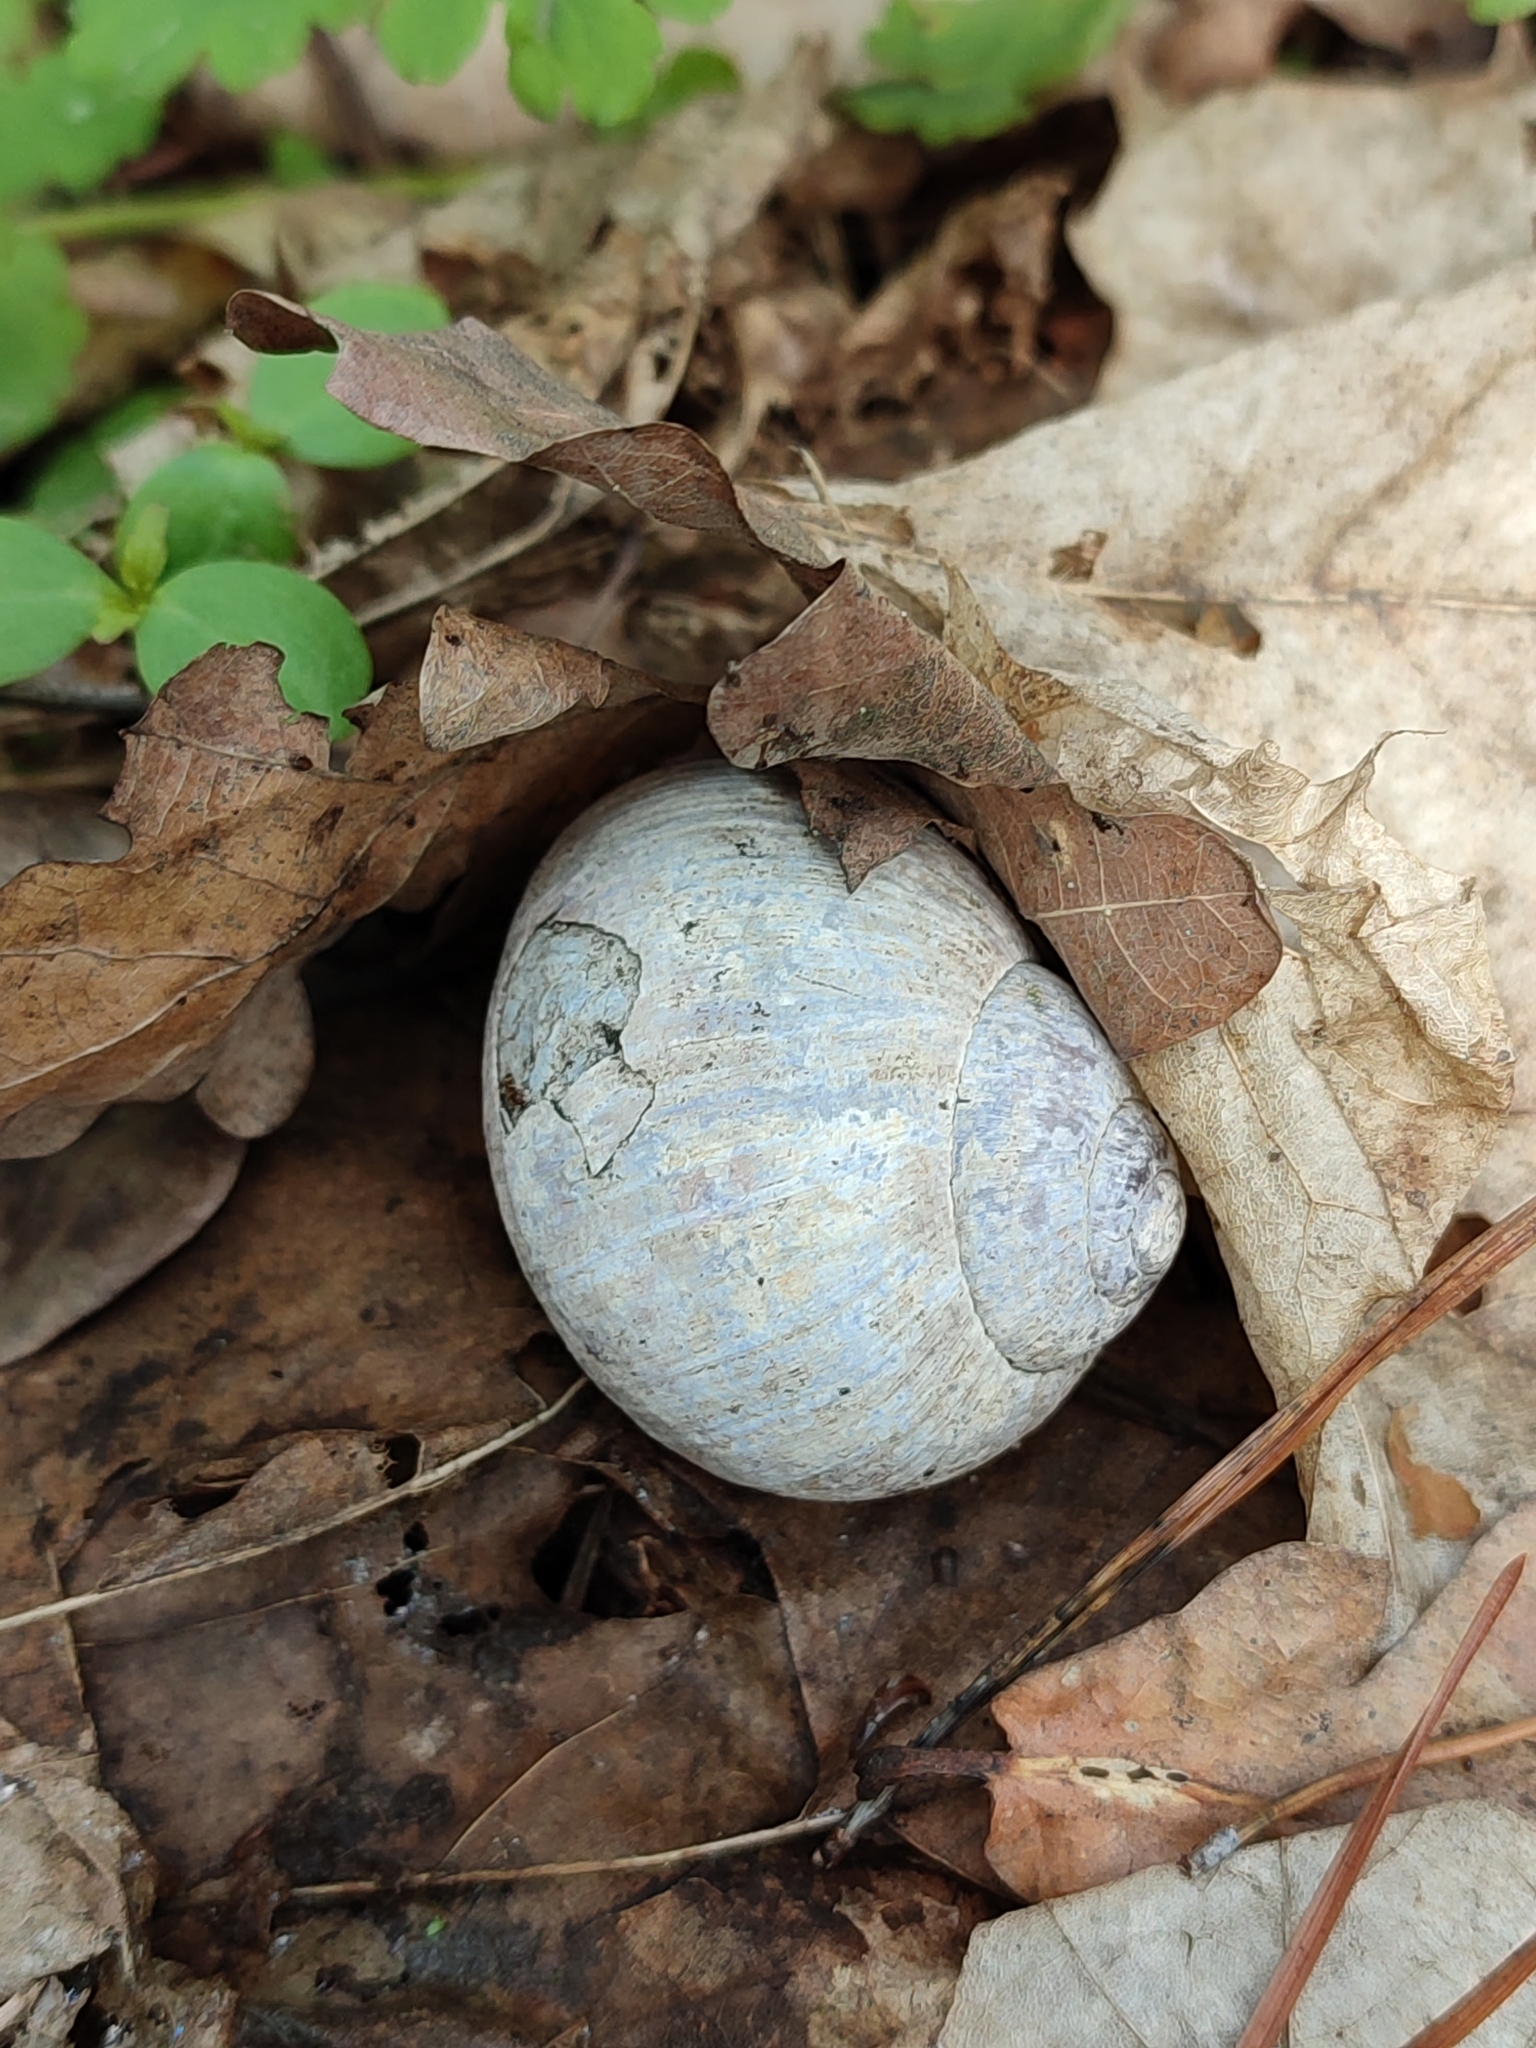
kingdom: Animalia
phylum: Mollusca
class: Gastropoda
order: Stylommatophora
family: Helicidae
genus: Helix
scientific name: Helix pomatia
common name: Roman snail
